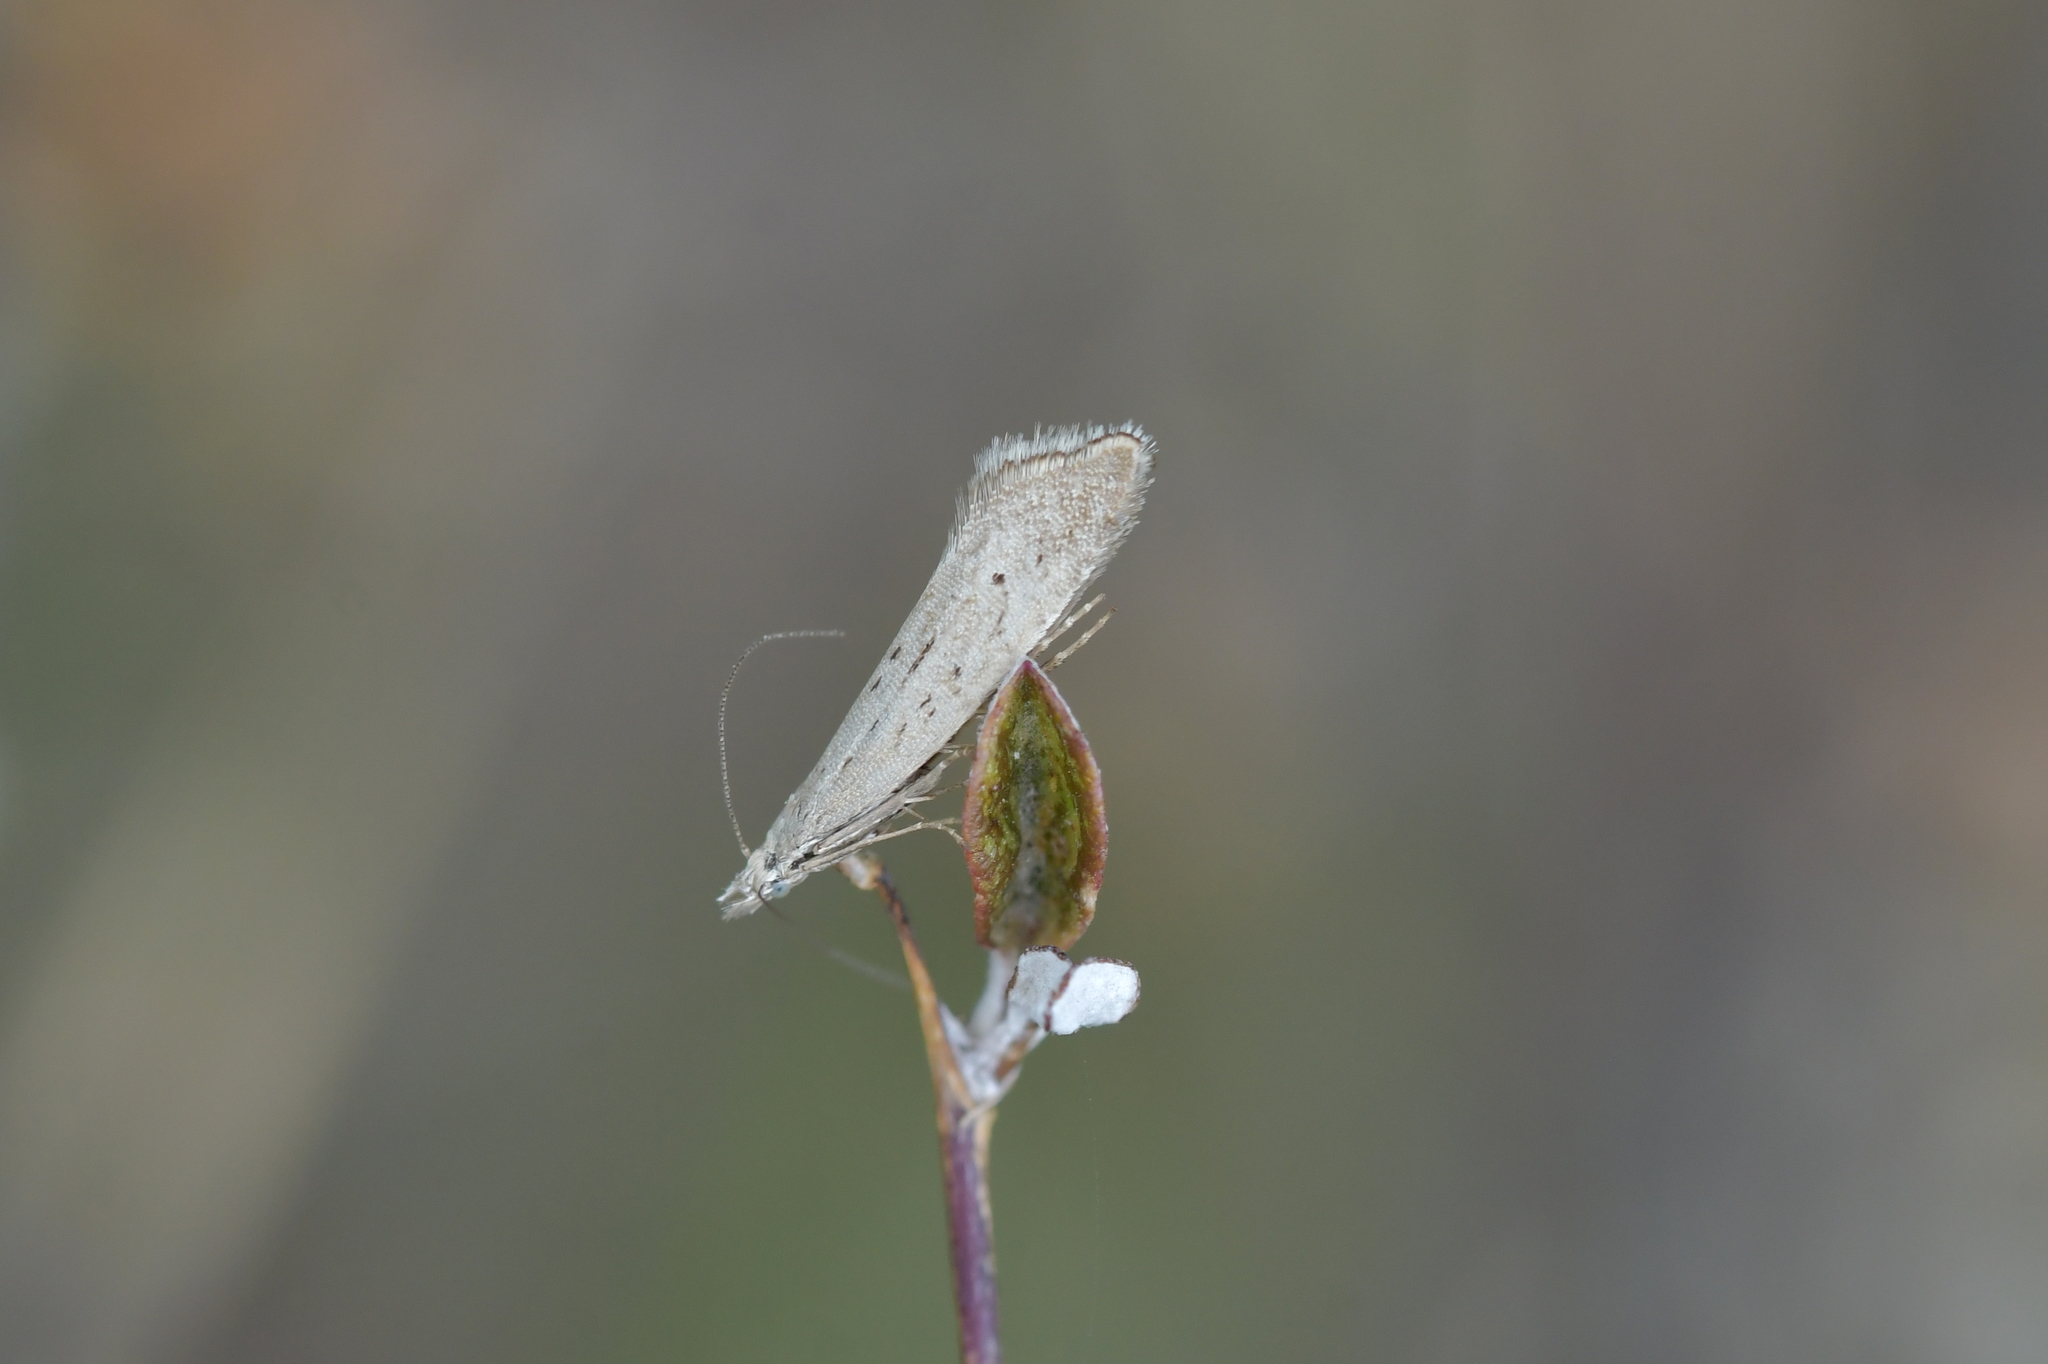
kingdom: Animalia
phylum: Arthropoda
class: Insecta
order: Lepidoptera
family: Glyphipterigidae
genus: Glyphipterix
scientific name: Glyphipterix achlyoessa
